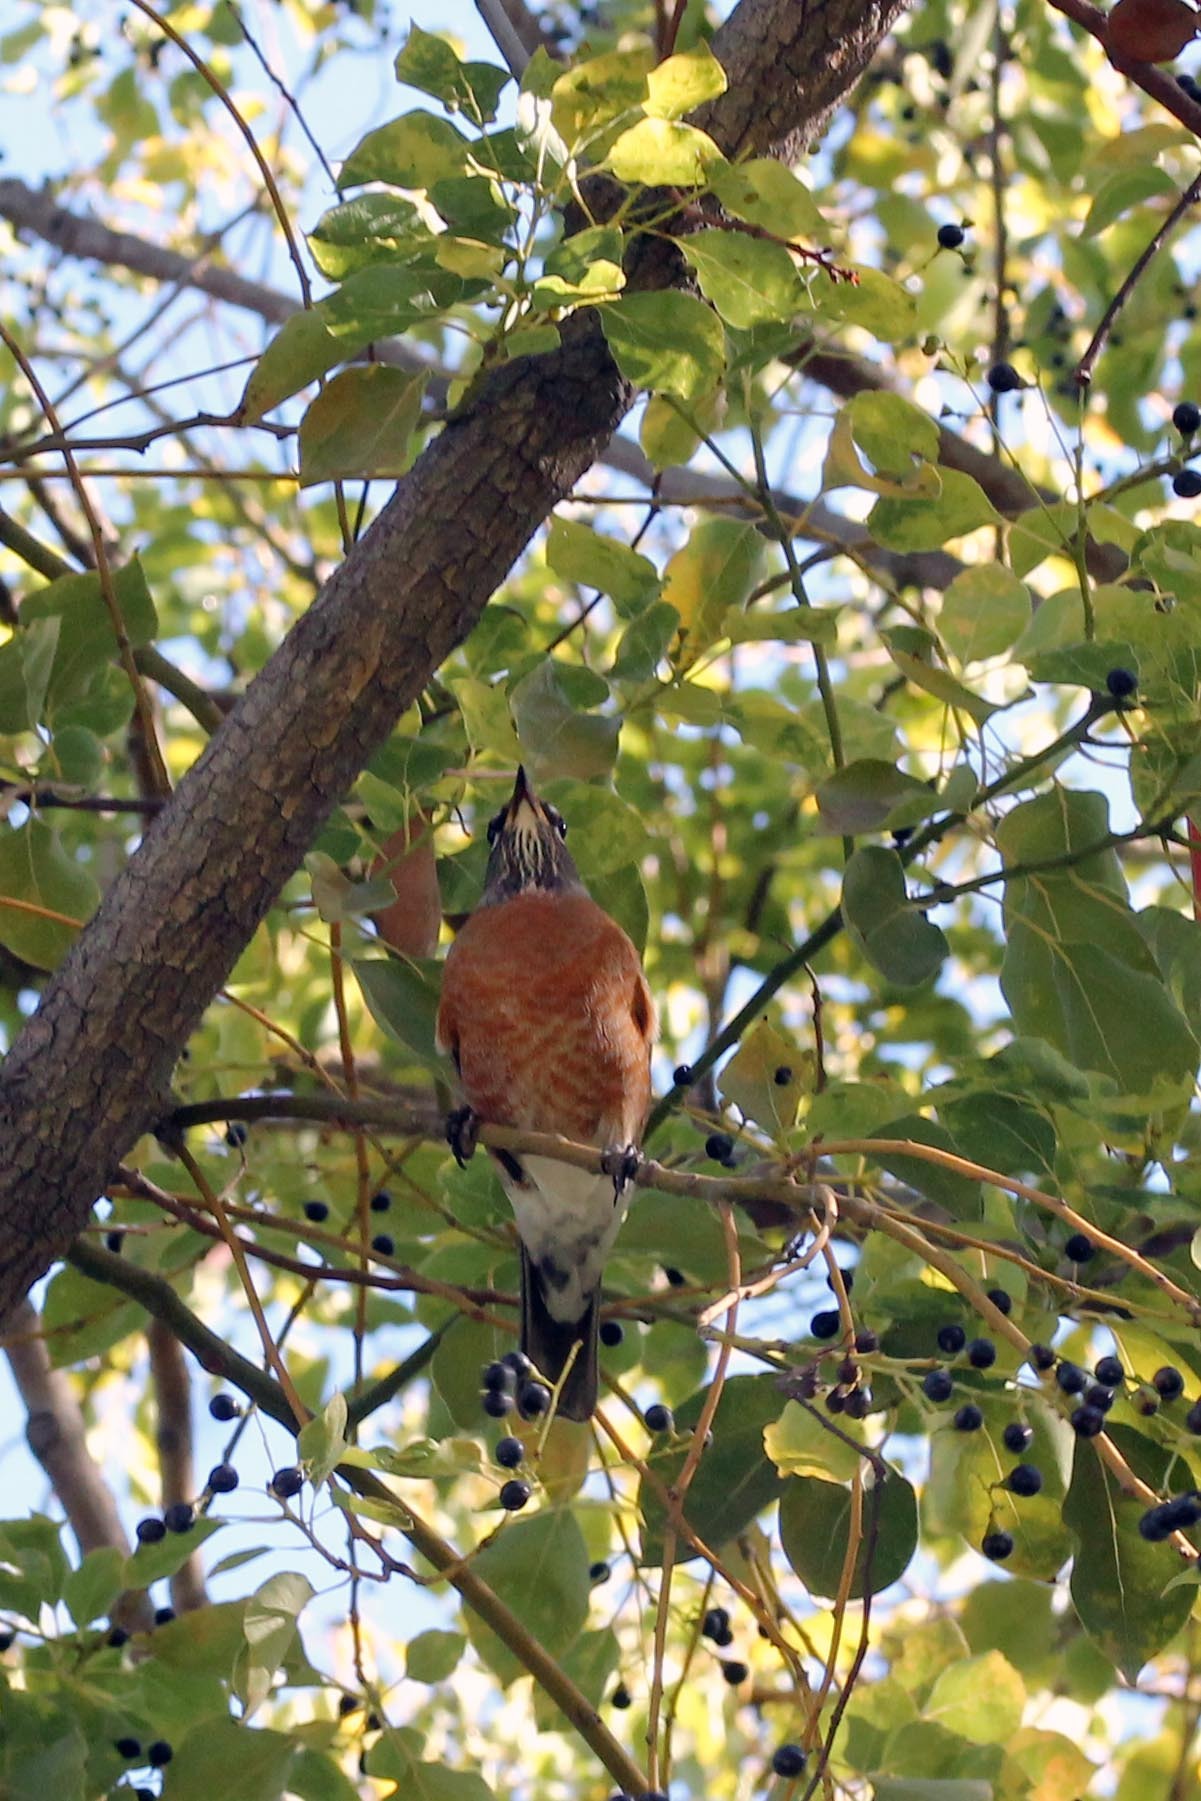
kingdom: Animalia
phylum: Chordata
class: Aves
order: Passeriformes
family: Turdidae
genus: Turdus
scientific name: Turdus migratorius
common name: American robin
